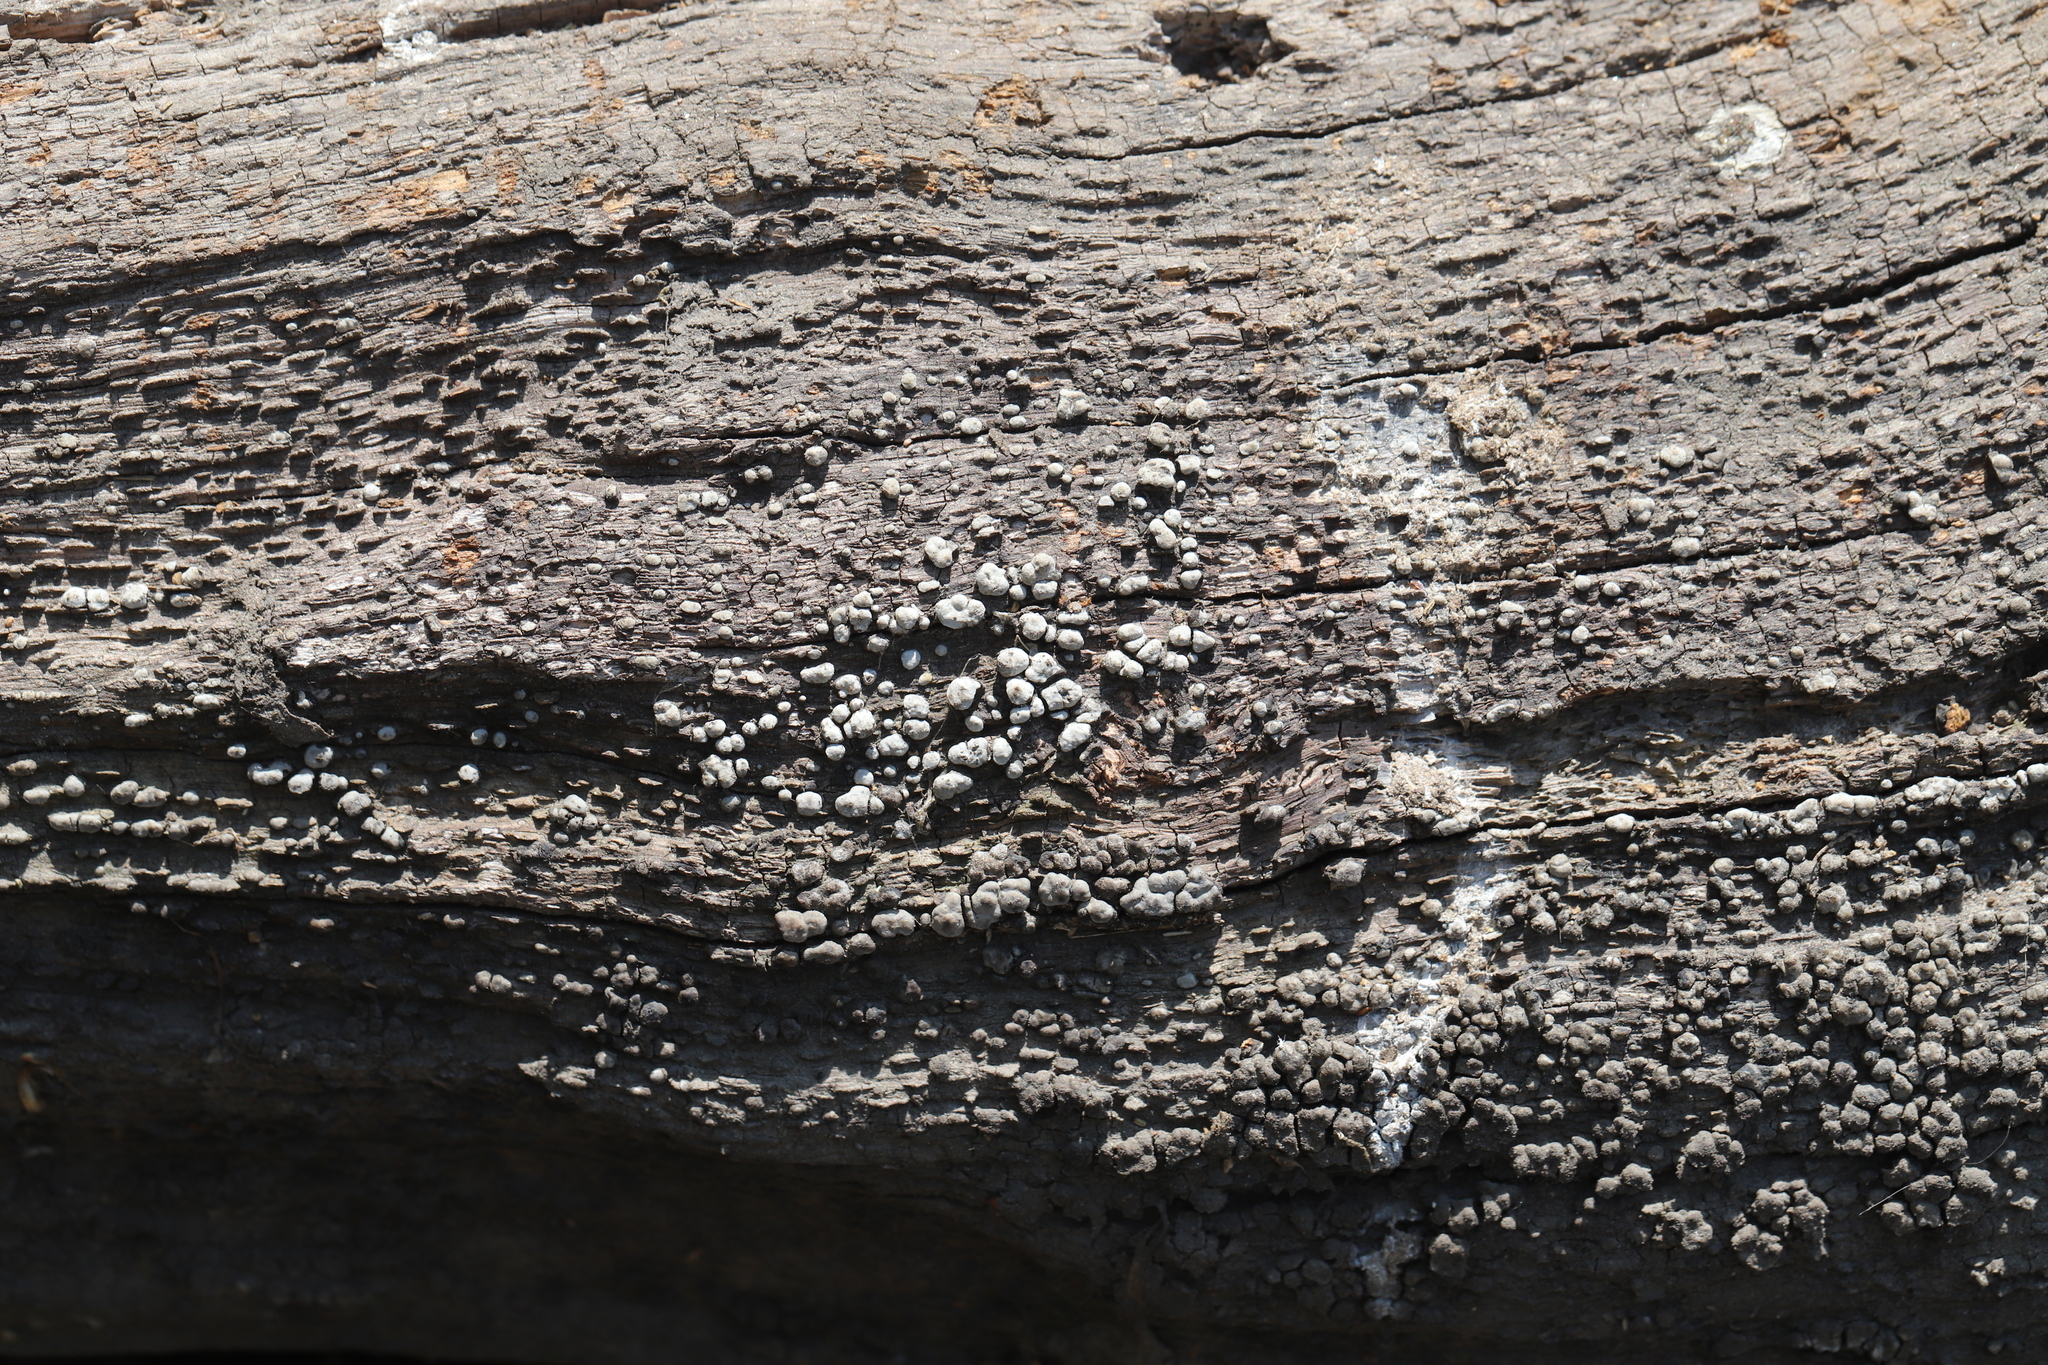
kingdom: Fungi
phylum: Basidiomycota
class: Agaricomycetes
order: Russulales
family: Stereaceae
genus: Xylobolus
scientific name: Xylobolus frustulatus
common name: Ceramic parchment
